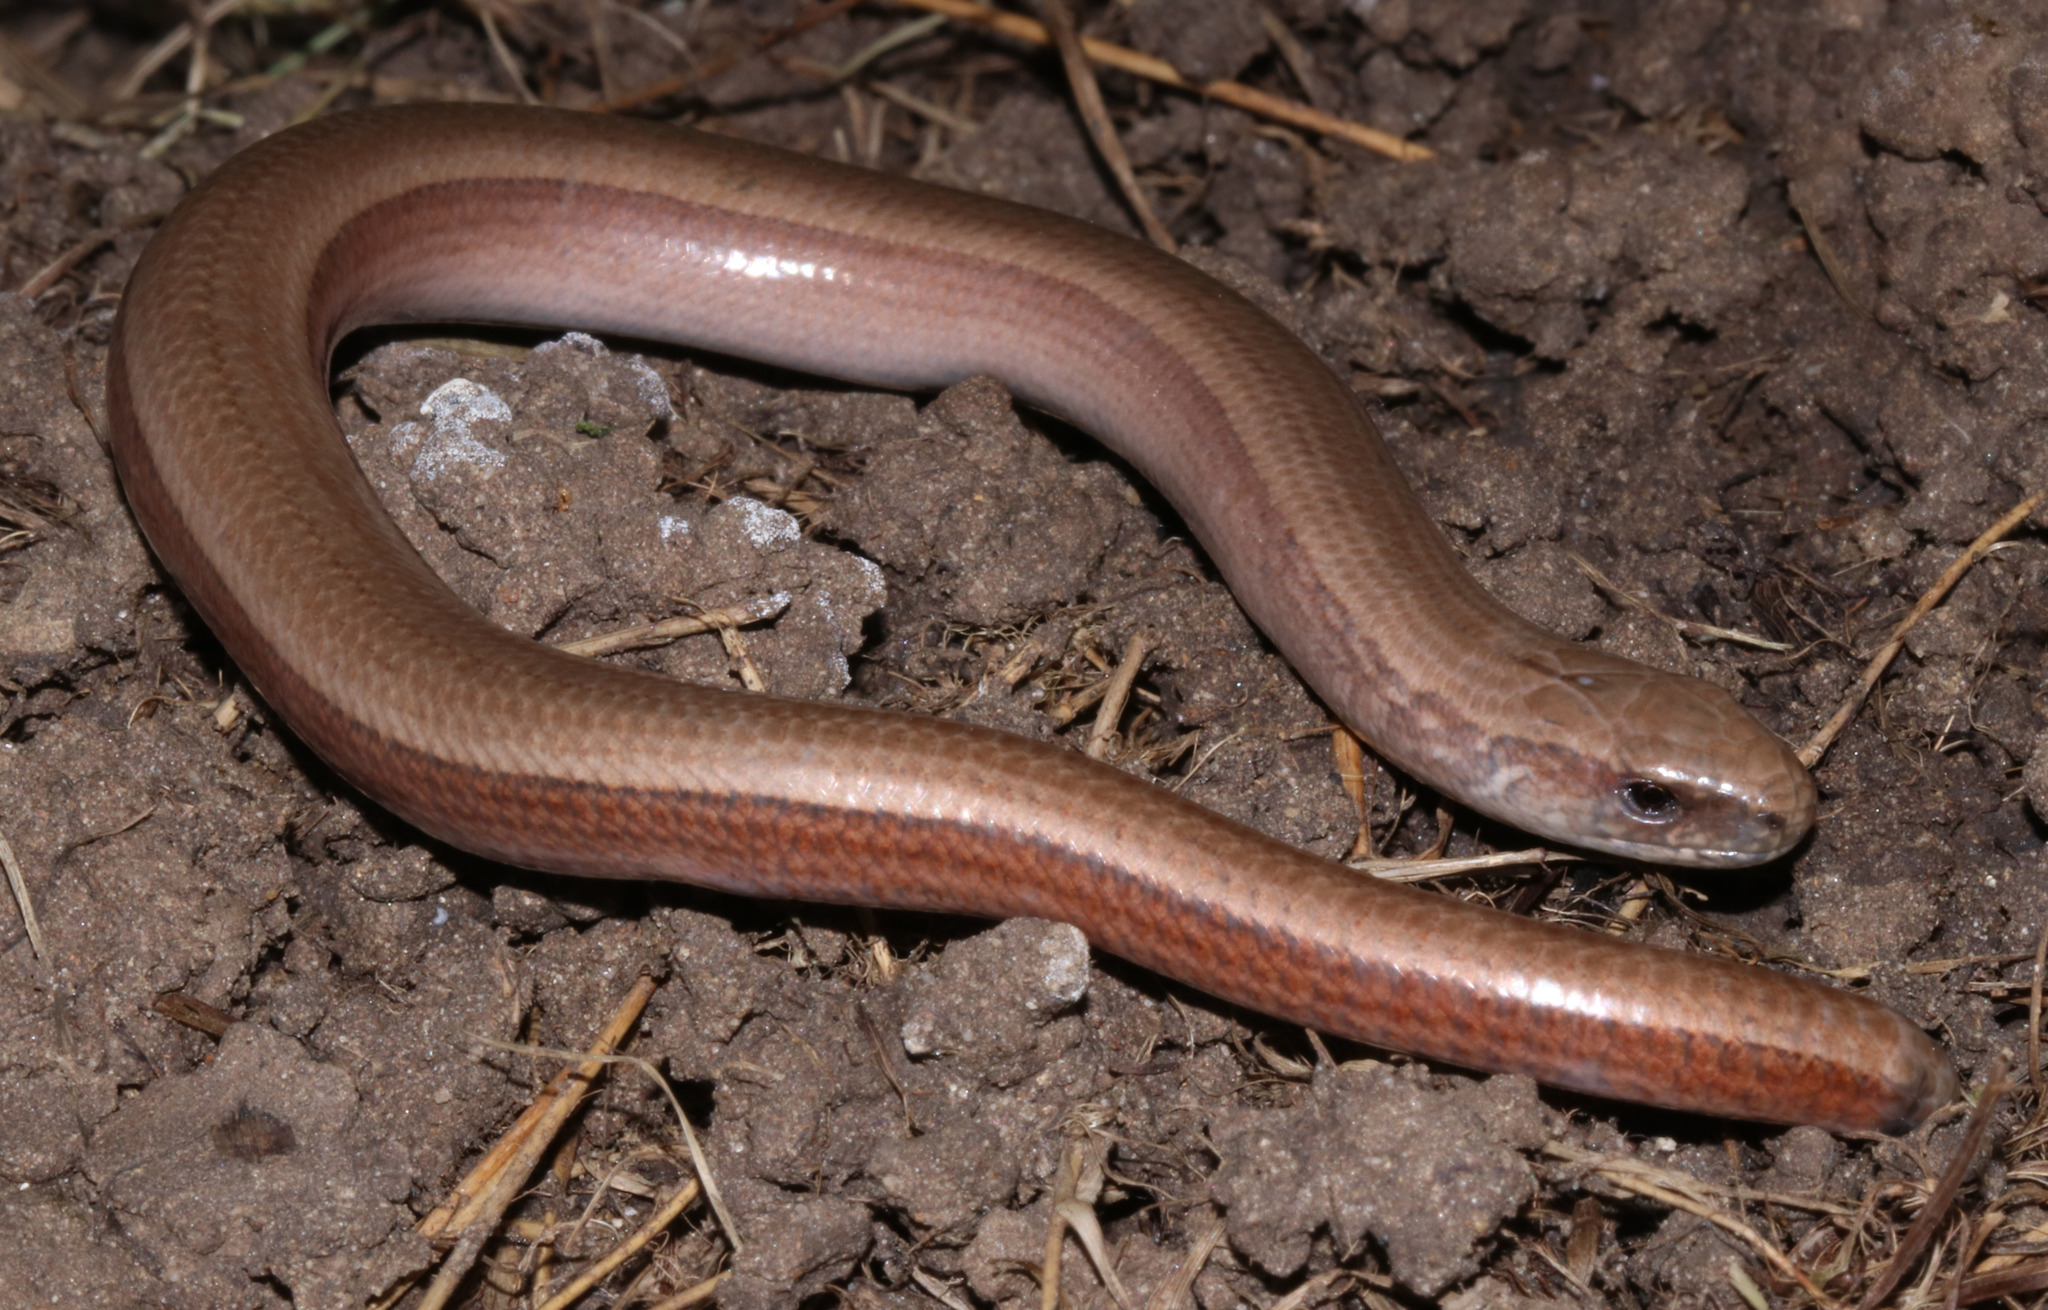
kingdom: Animalia
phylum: Chordata
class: Squamata
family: Anguidae
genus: Anguis
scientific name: Anguis fragilis
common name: Slow worm
